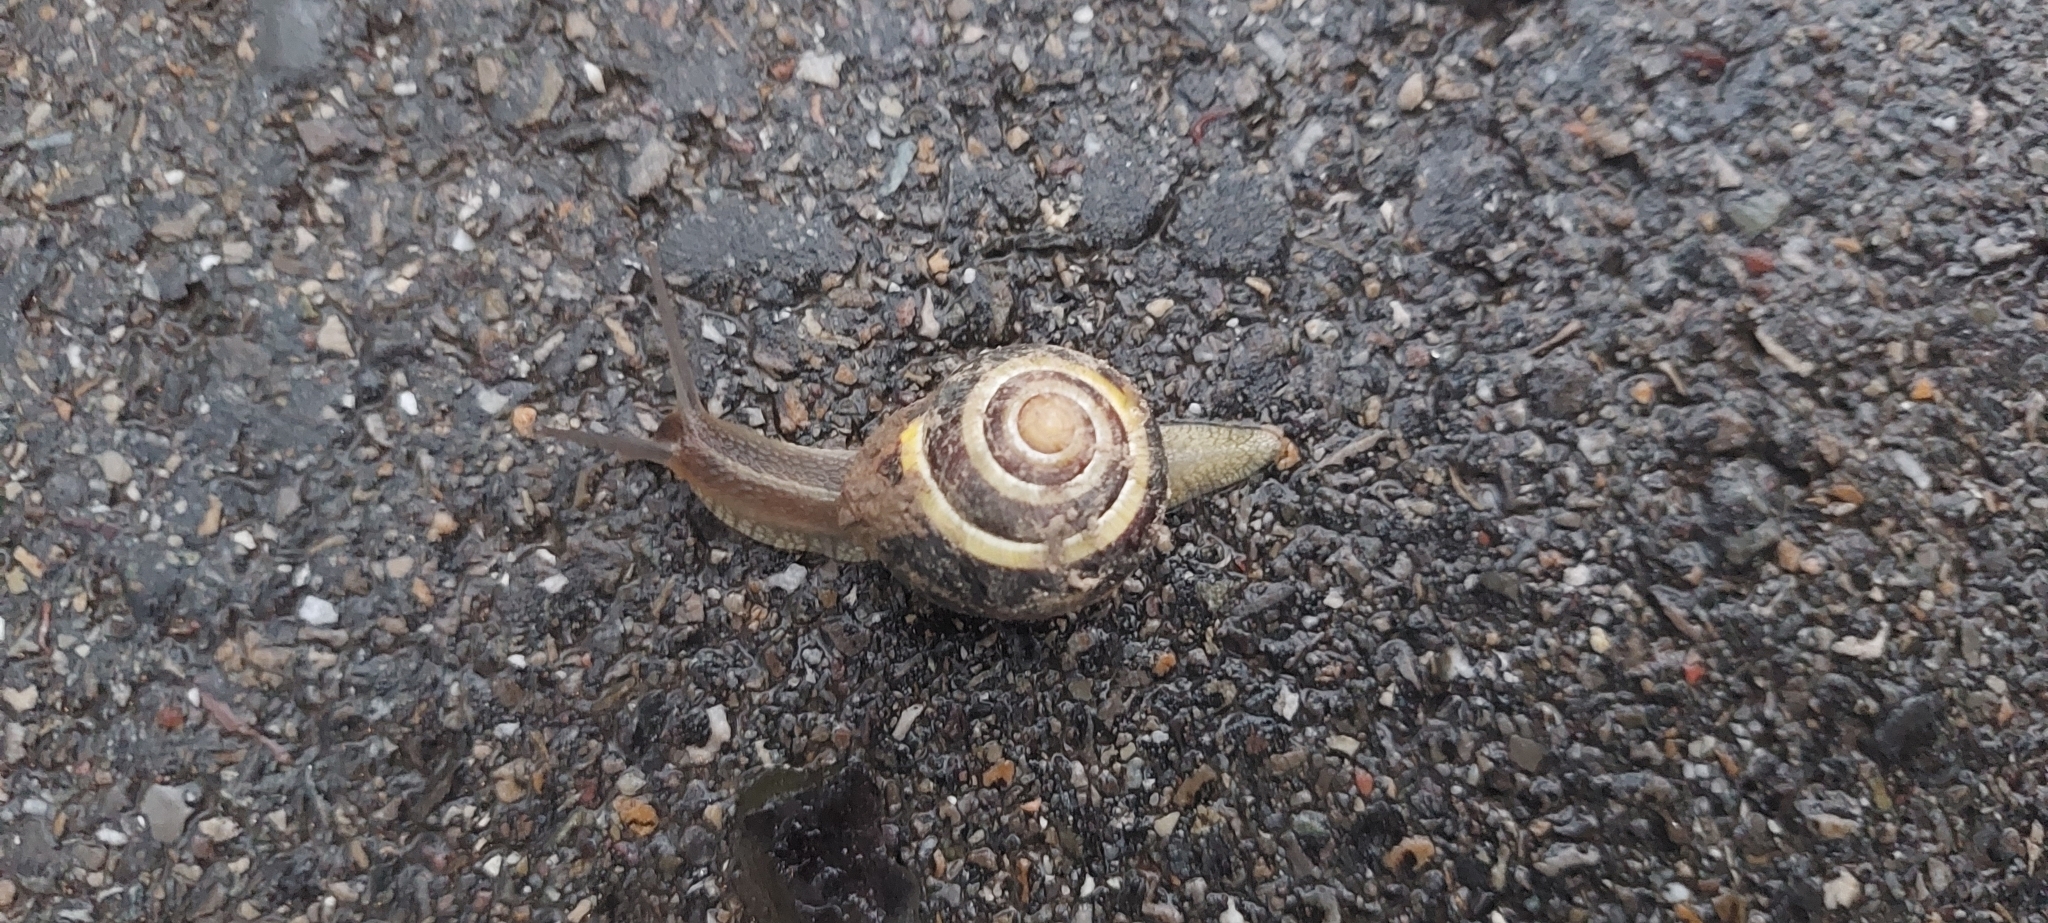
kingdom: Animalia
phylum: Mollusca
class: Gastropoda
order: Stylommatophora
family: Helicidae
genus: Cepaea
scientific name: Cepaea nemoralis
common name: Grovesnail
